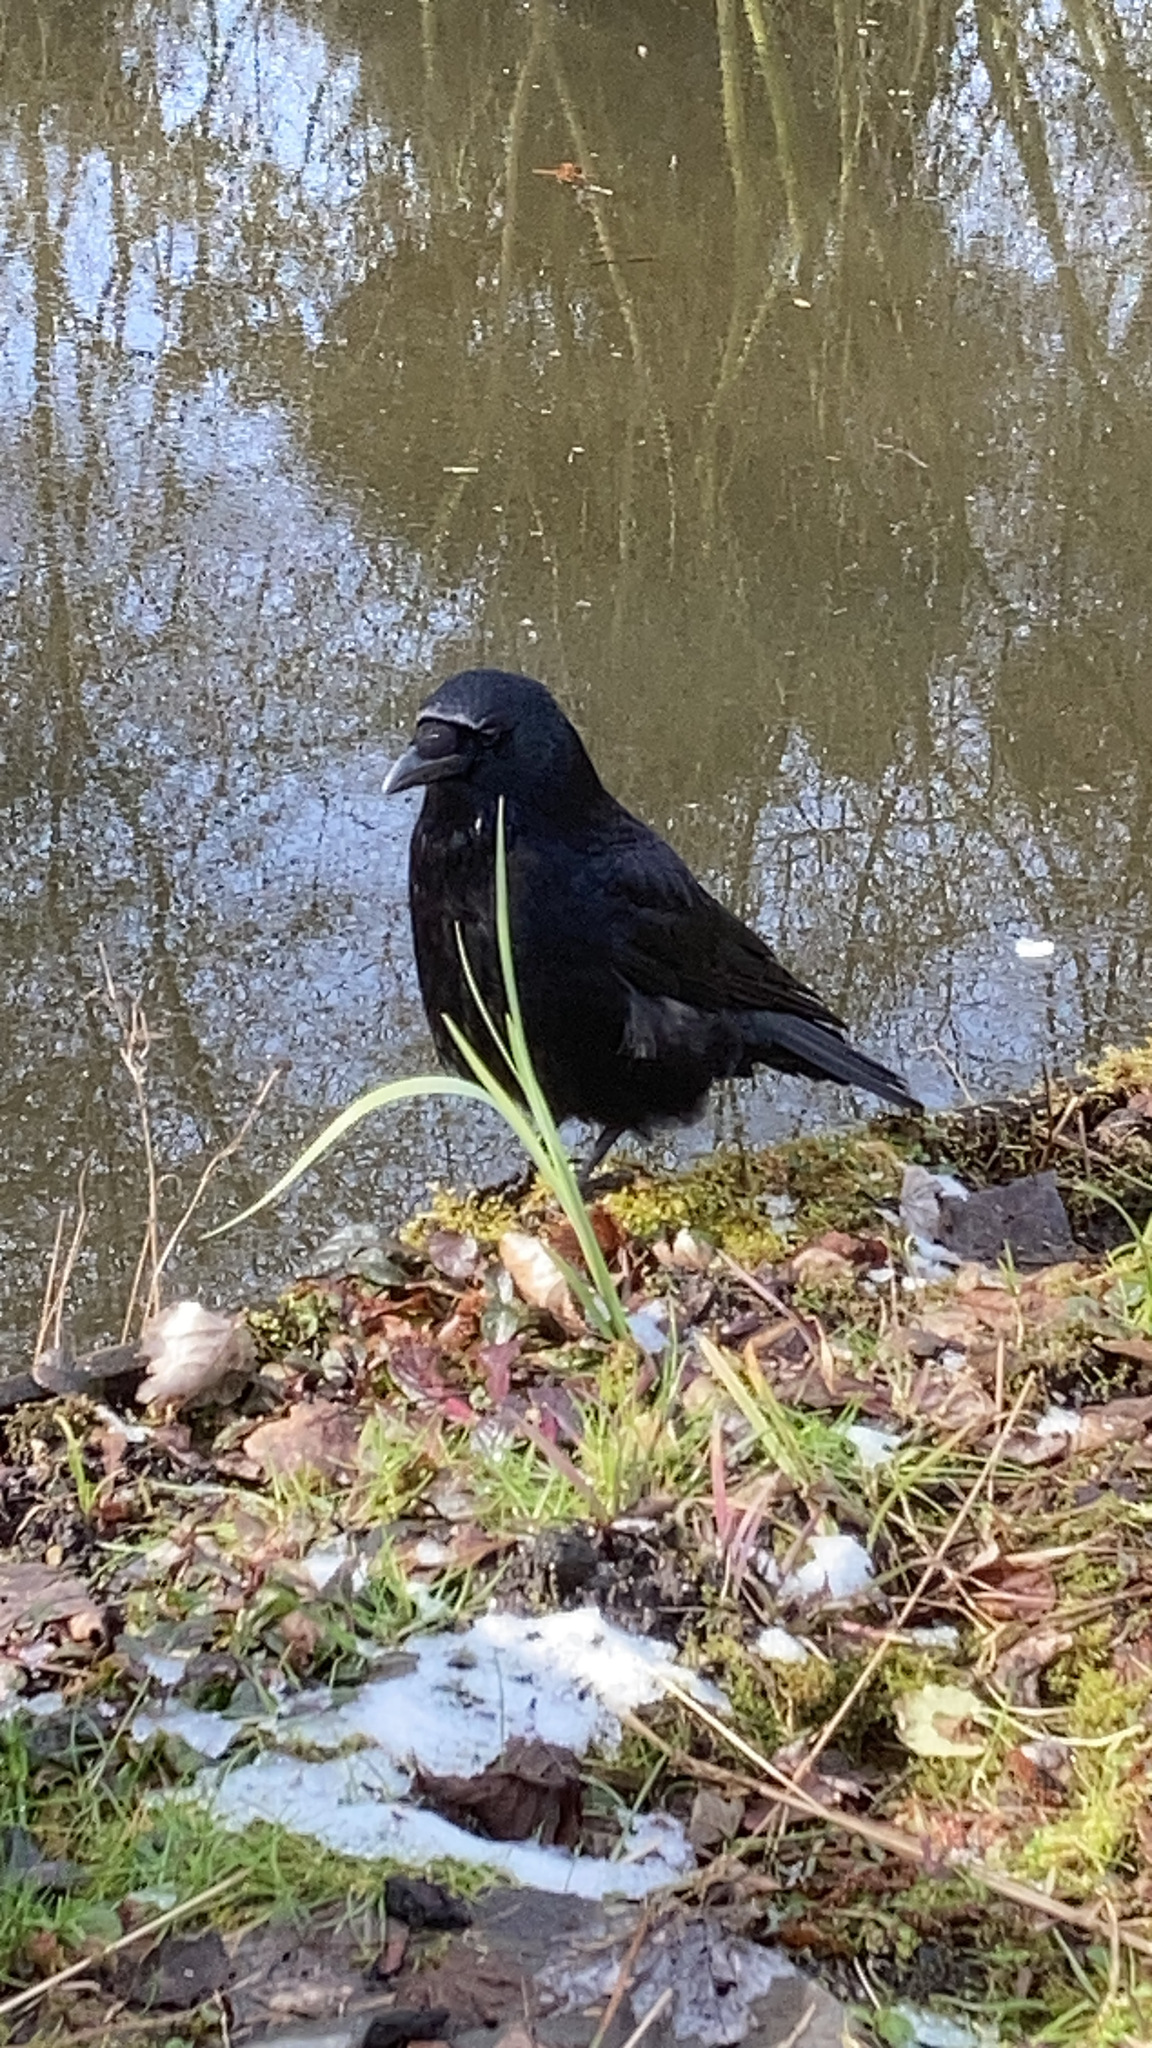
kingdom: Animalia
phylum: Chordata
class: Aves
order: Passeriformes
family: Corvidae
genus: Corvus
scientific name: Corvus corone
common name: Carrion crow
